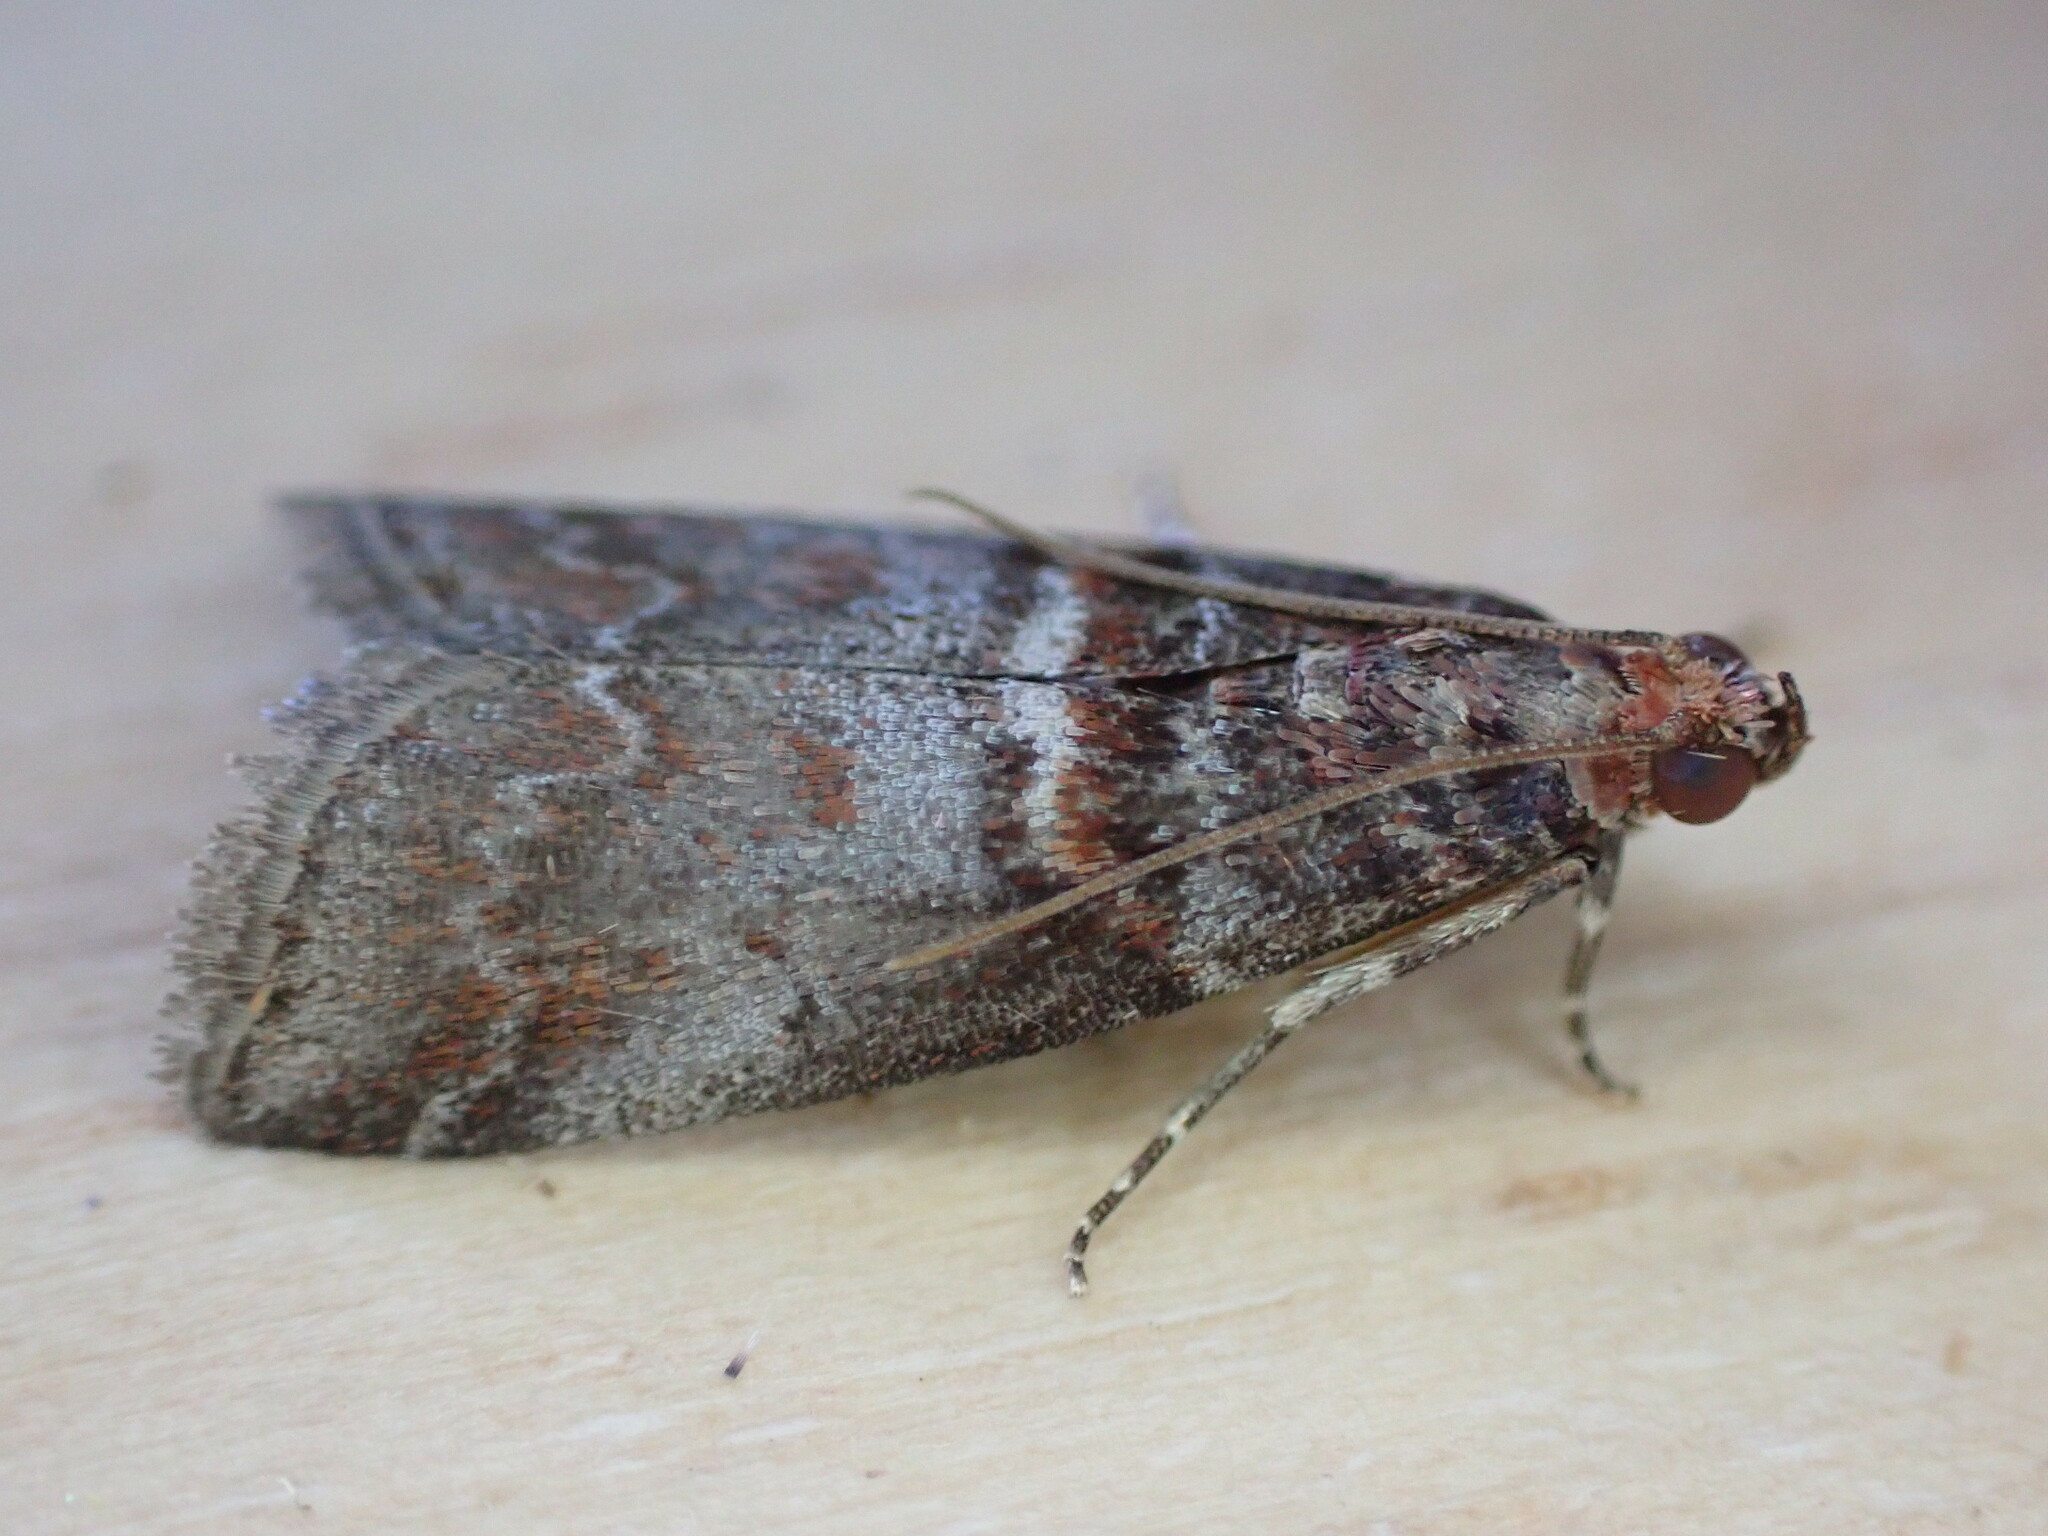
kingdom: Animalia
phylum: Arthropoda
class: Insecta
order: Lepidoptera
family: Pyralidae
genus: Acrobasis
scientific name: Acrobasis advenella
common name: Grey knot-horn
